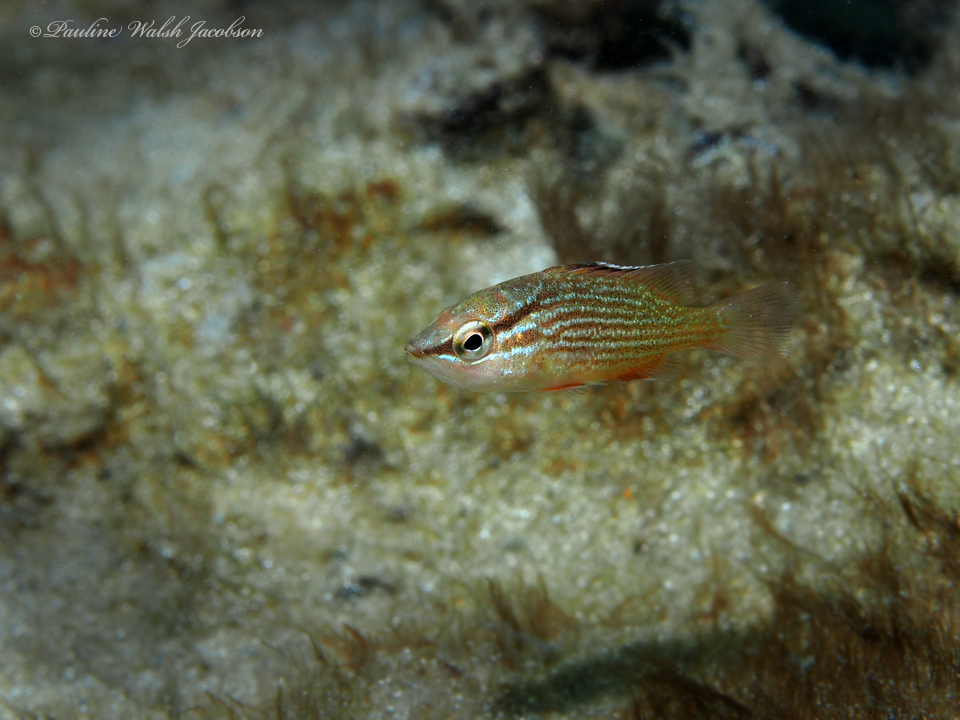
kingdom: Animalia
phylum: Chordata
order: Perciformes
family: Lutjanidae
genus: Lutjanus
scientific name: Lutjanus griseus
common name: Gray snapper
